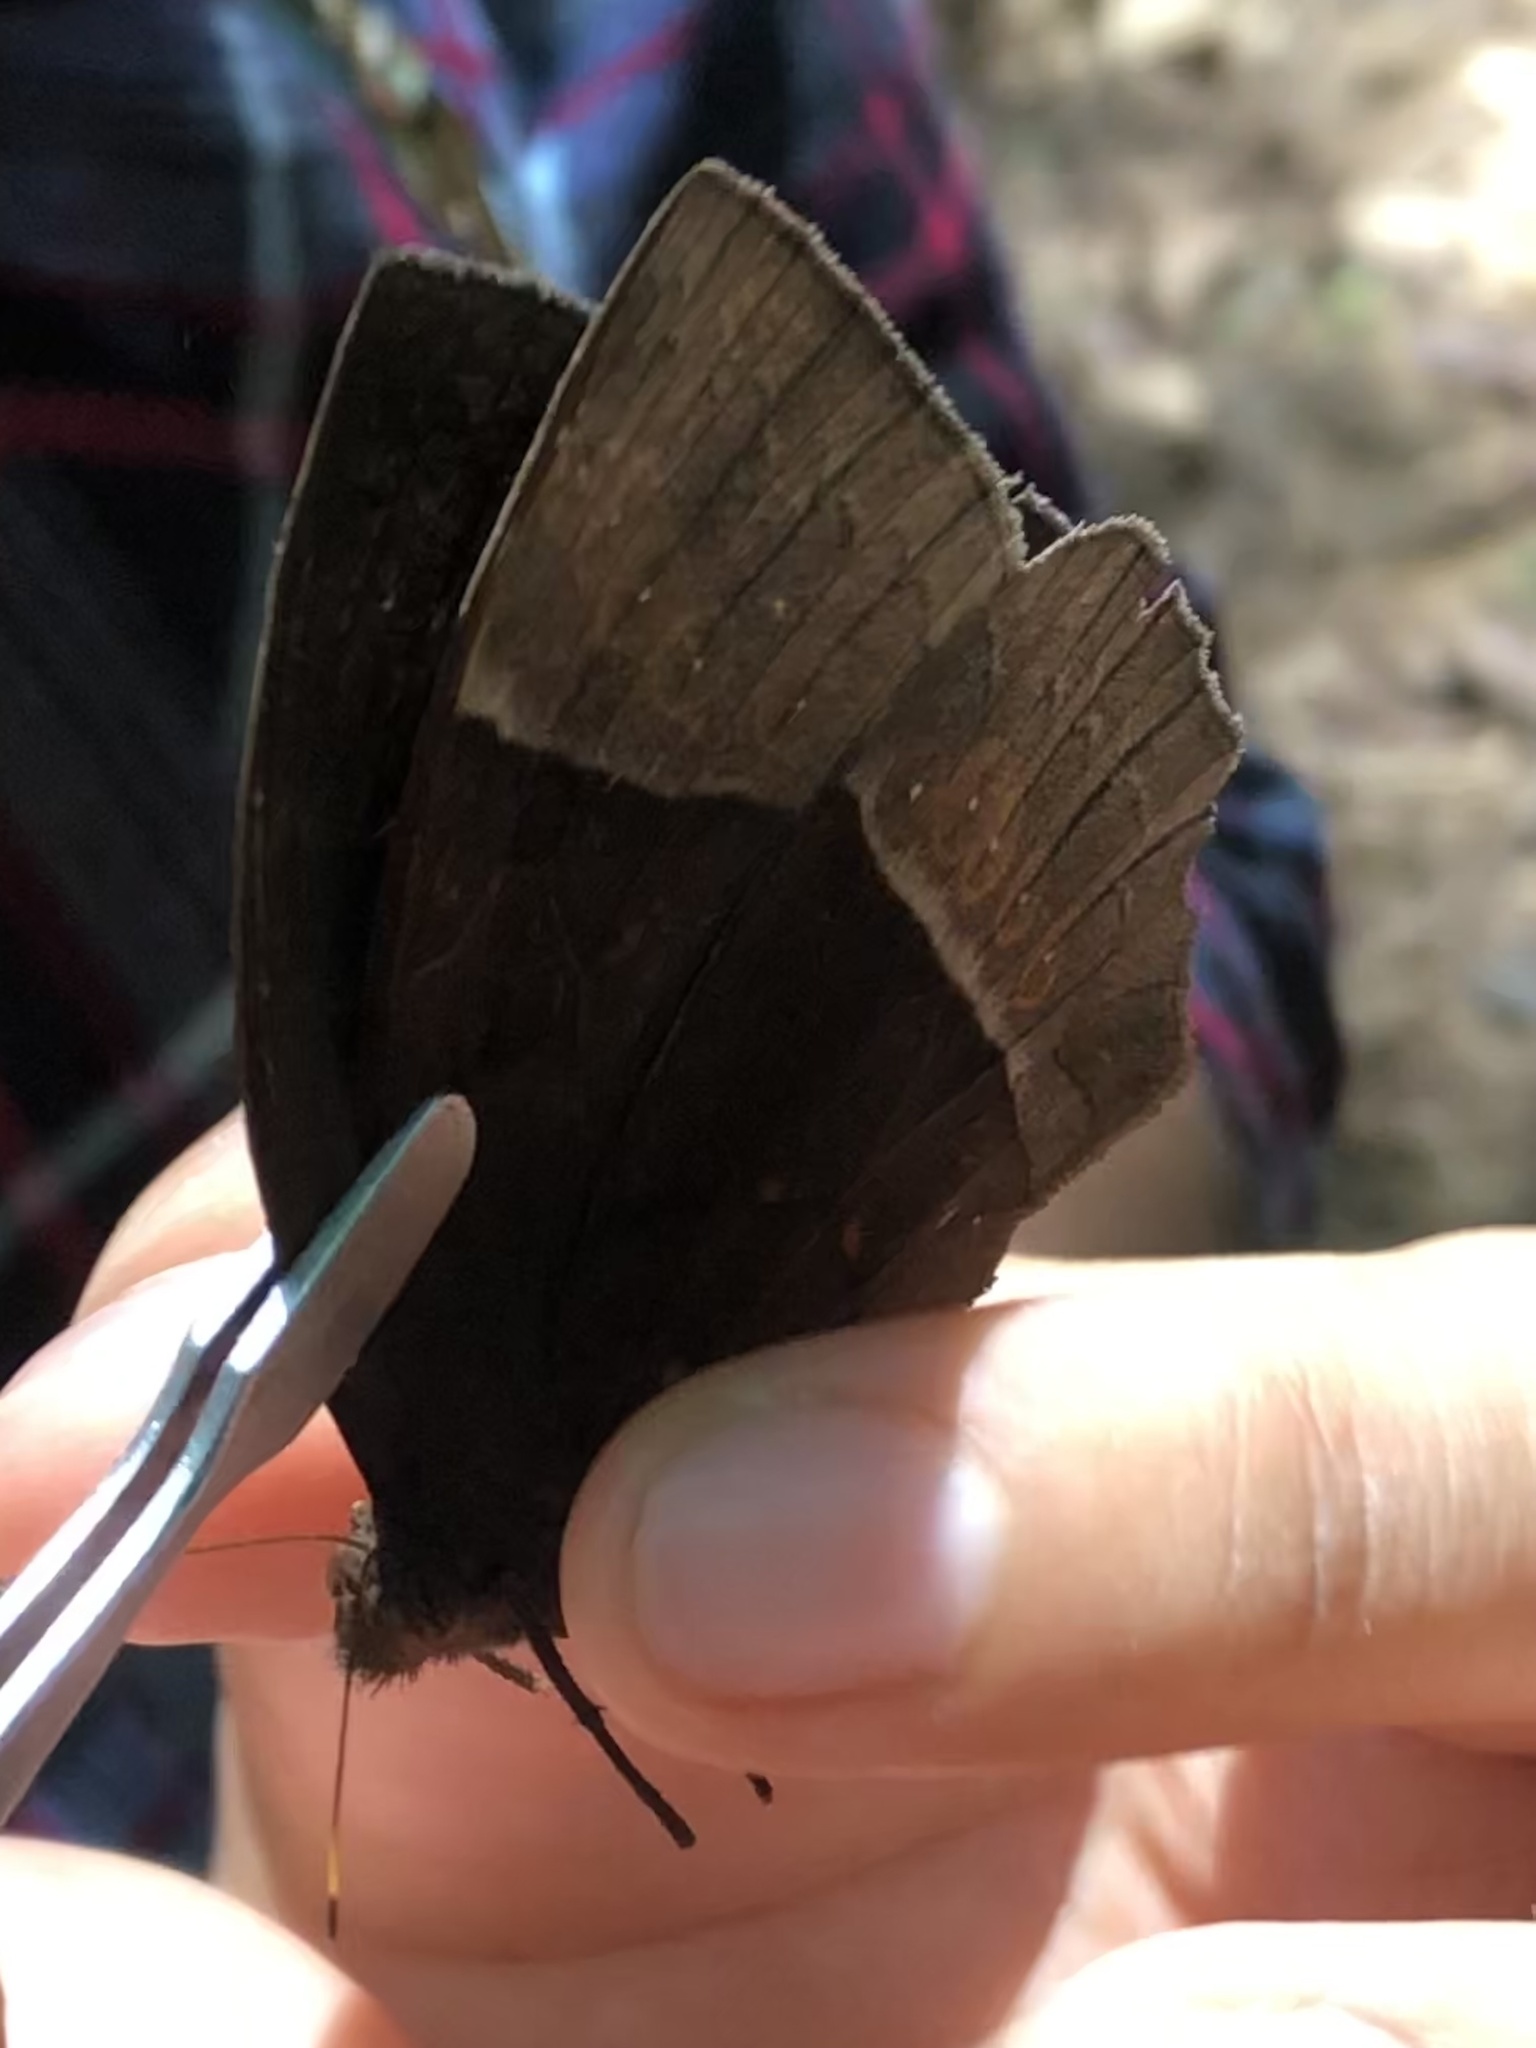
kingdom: Animalia
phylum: Arthropoda
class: Insecta
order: Lepidoptera
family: Nymphalidae
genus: Taygetis
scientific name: Taygetis oyapock
